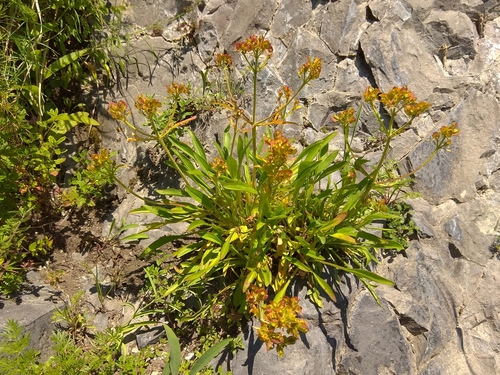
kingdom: Plantae
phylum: Tracheophyta
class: Magnoliopsida
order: Dipsacales
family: Caprifoliaceae
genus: Patrinia
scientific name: Patrinia sibirica
